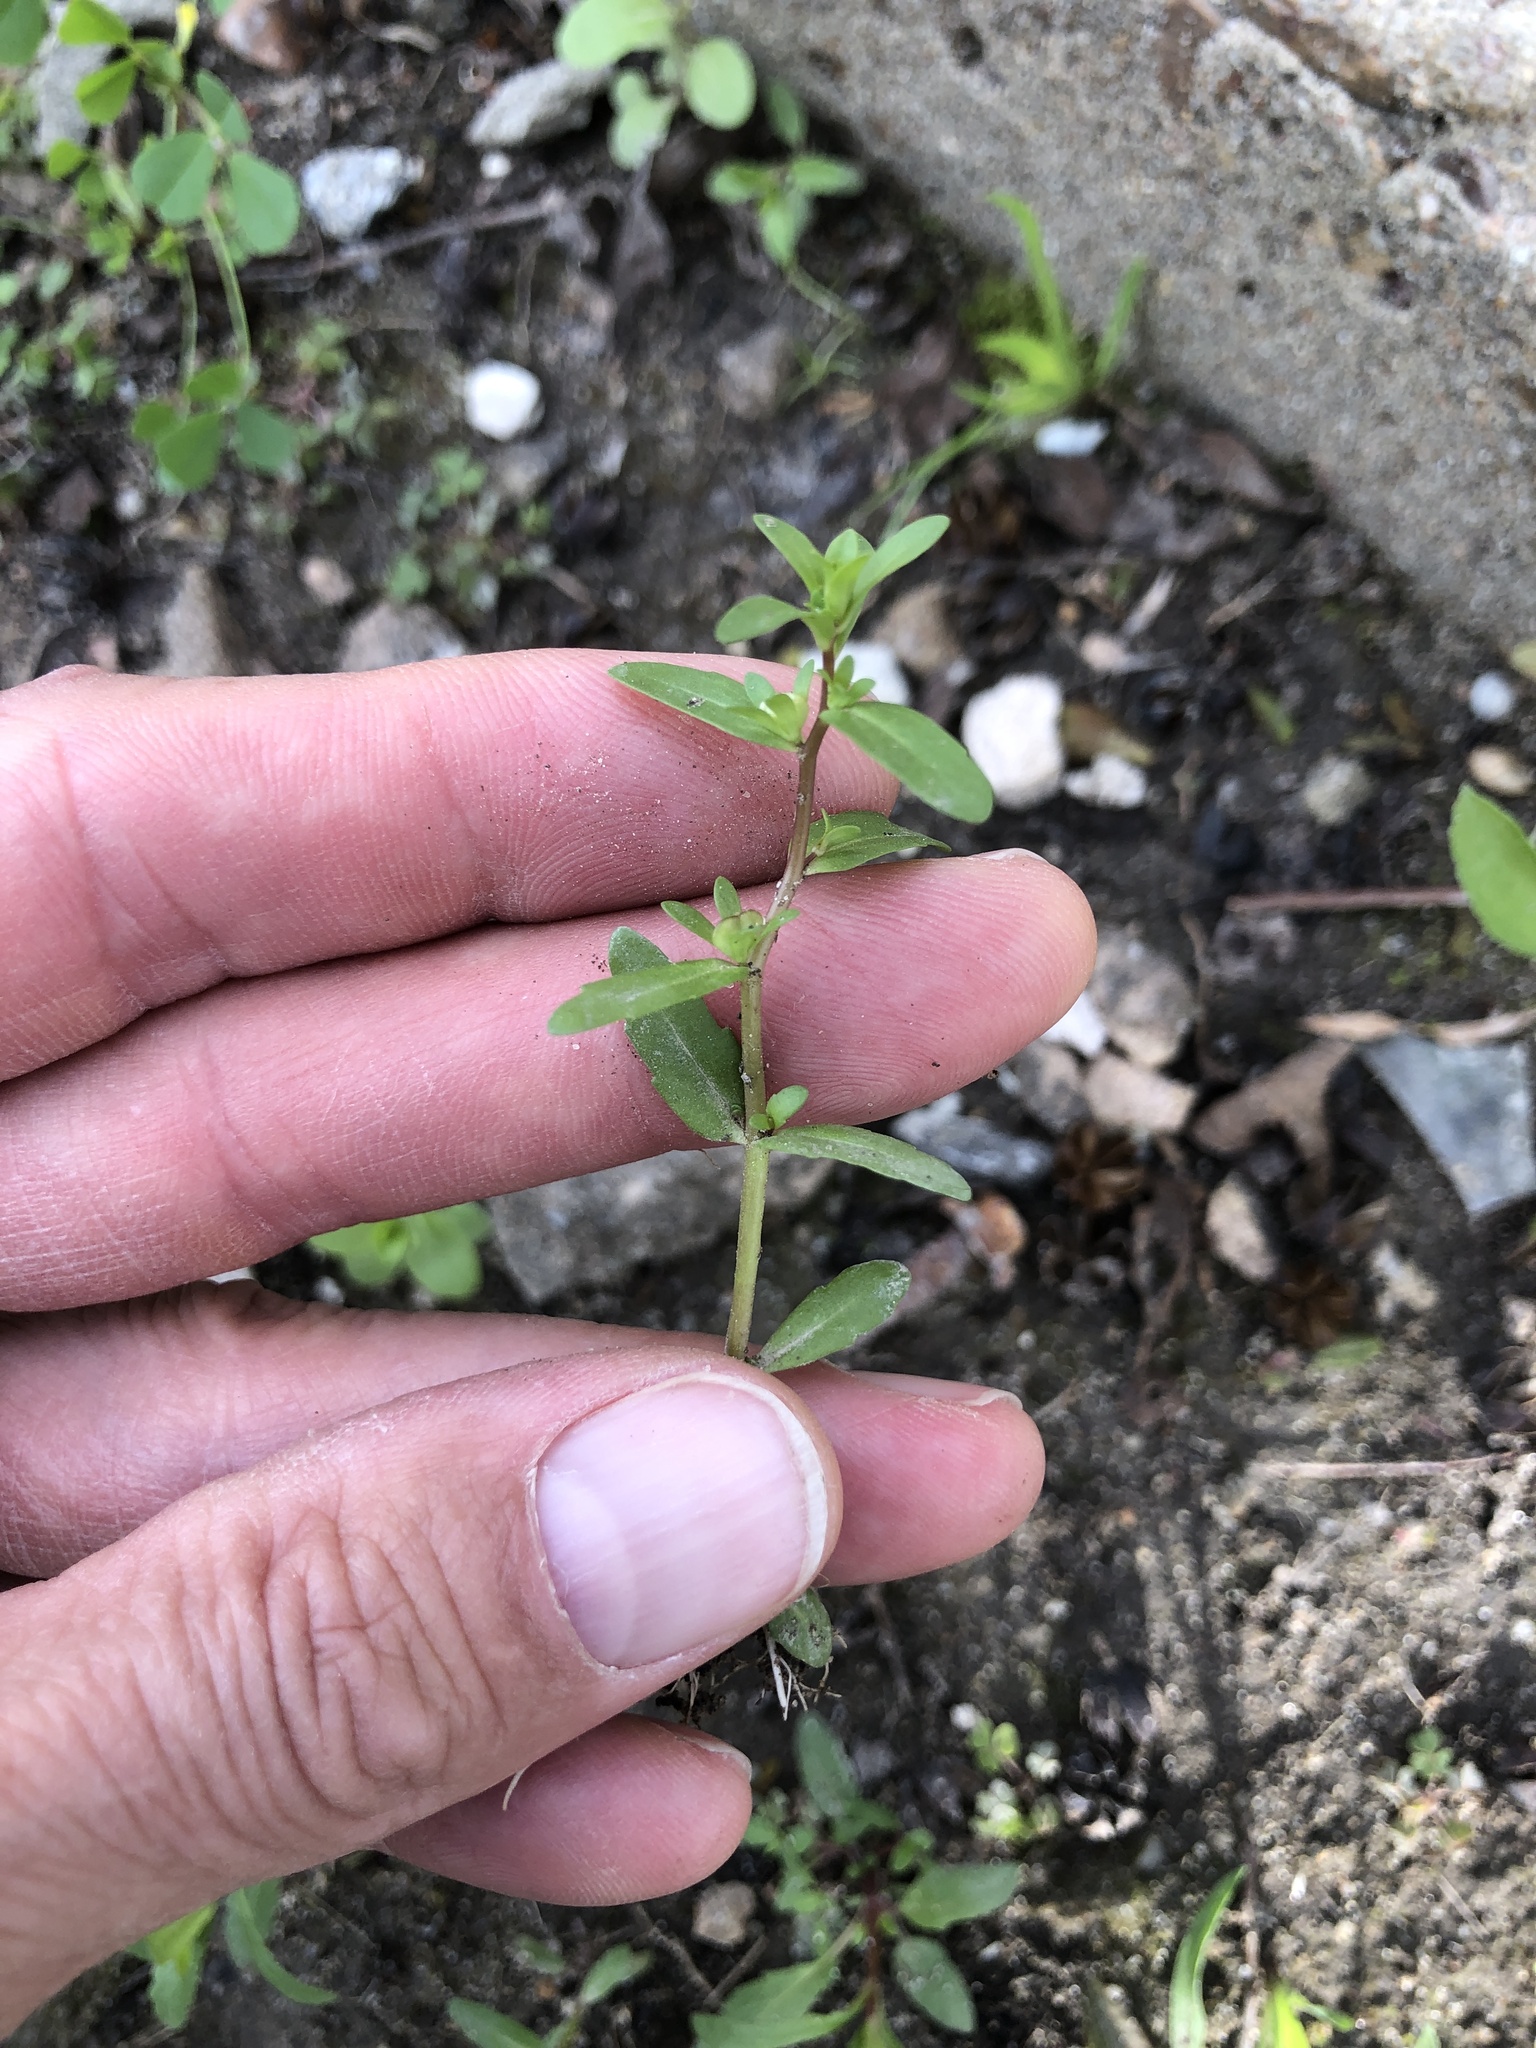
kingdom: Plantae
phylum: Tracheophyta
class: Magnoliopsida
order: Lamiales
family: Plantaginaceae
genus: Veronica
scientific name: Veronica peregrina
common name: Neckweed
